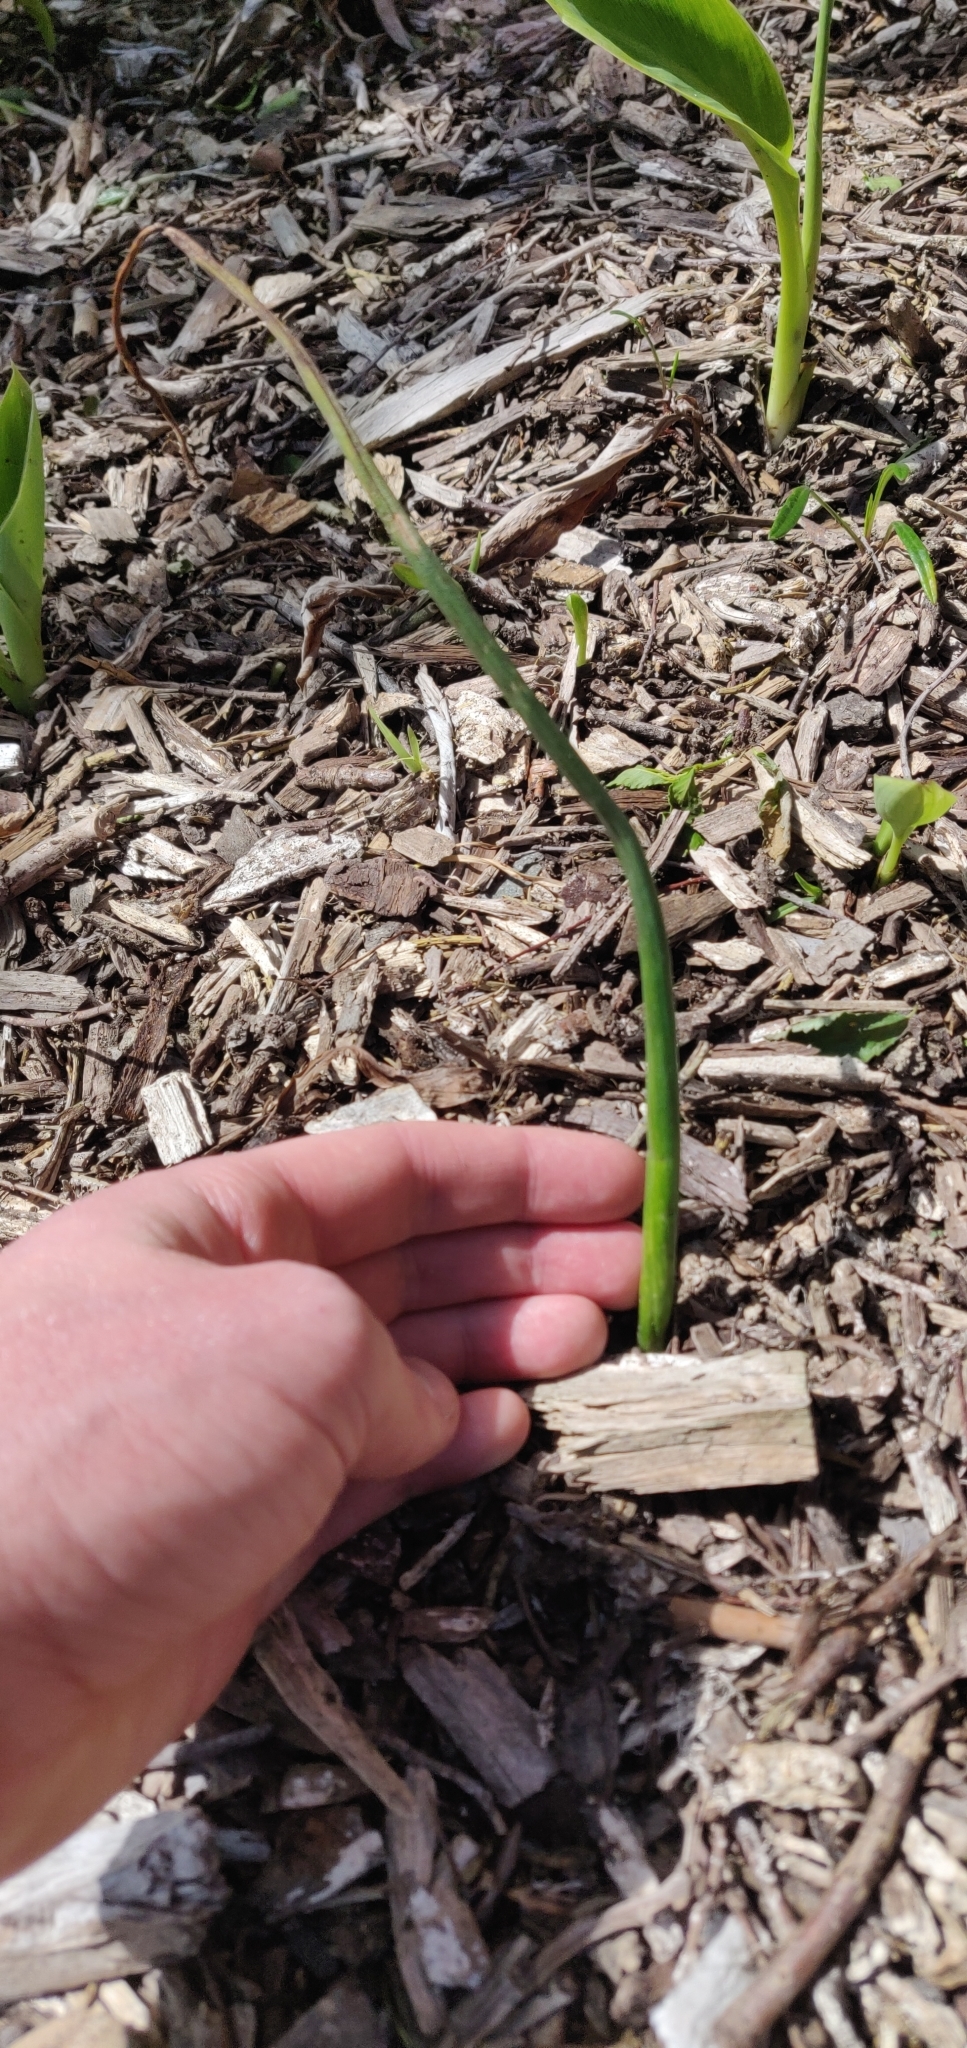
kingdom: Plantae
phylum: Tracheophyta
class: Liliopsida
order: Asparagales
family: Orchidaceae
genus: Microtis
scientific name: Microtis unifolia
